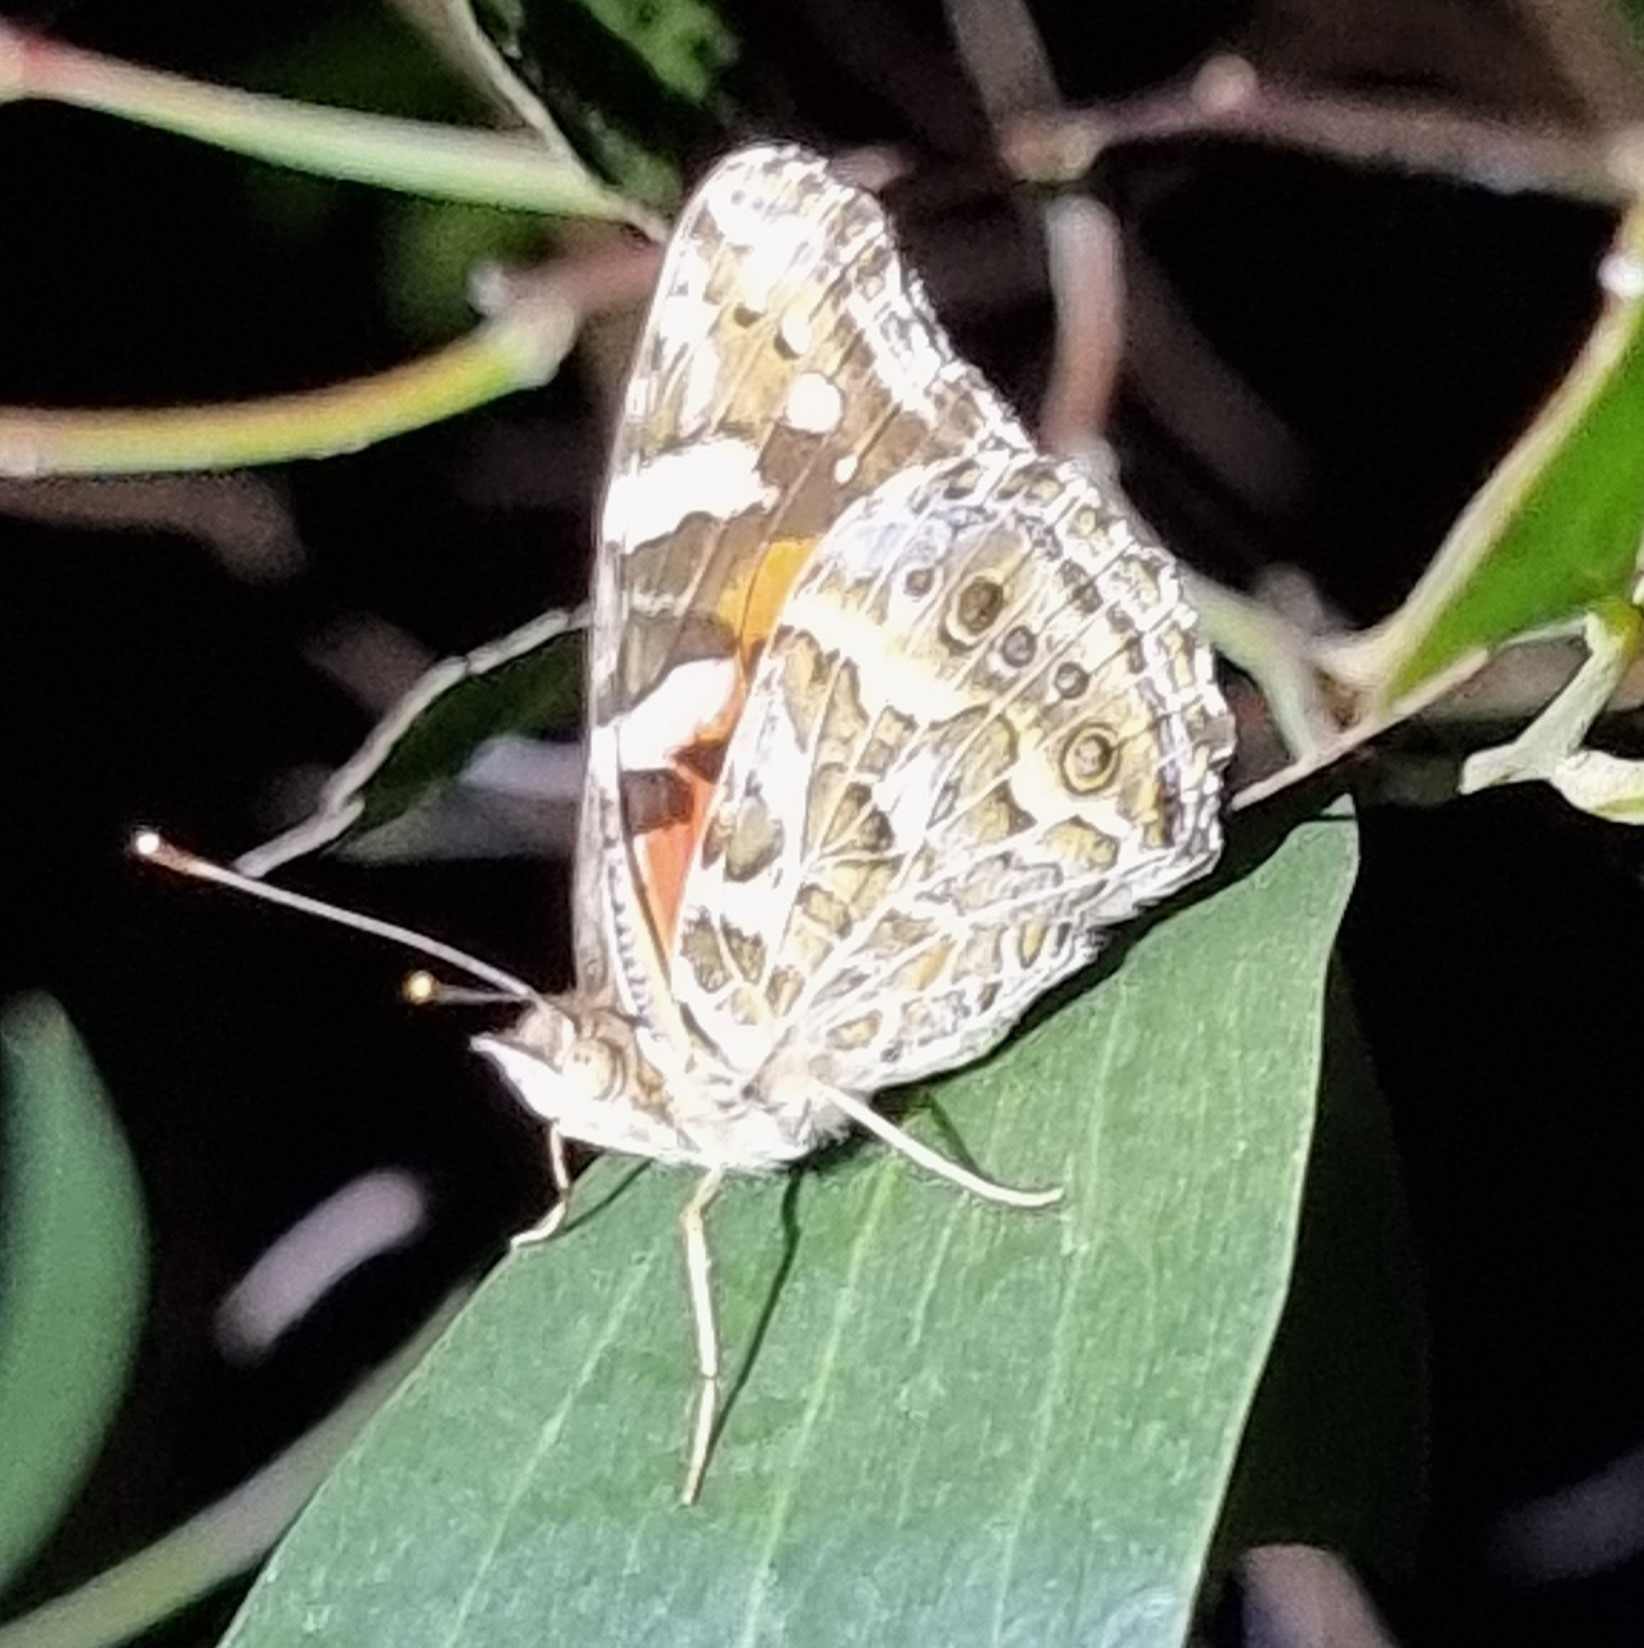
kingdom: Animalia
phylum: Arthropoda
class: Insecta
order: Lepidoptera
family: Nymphalidae
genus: Vanessa
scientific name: Vanessa kershawi
